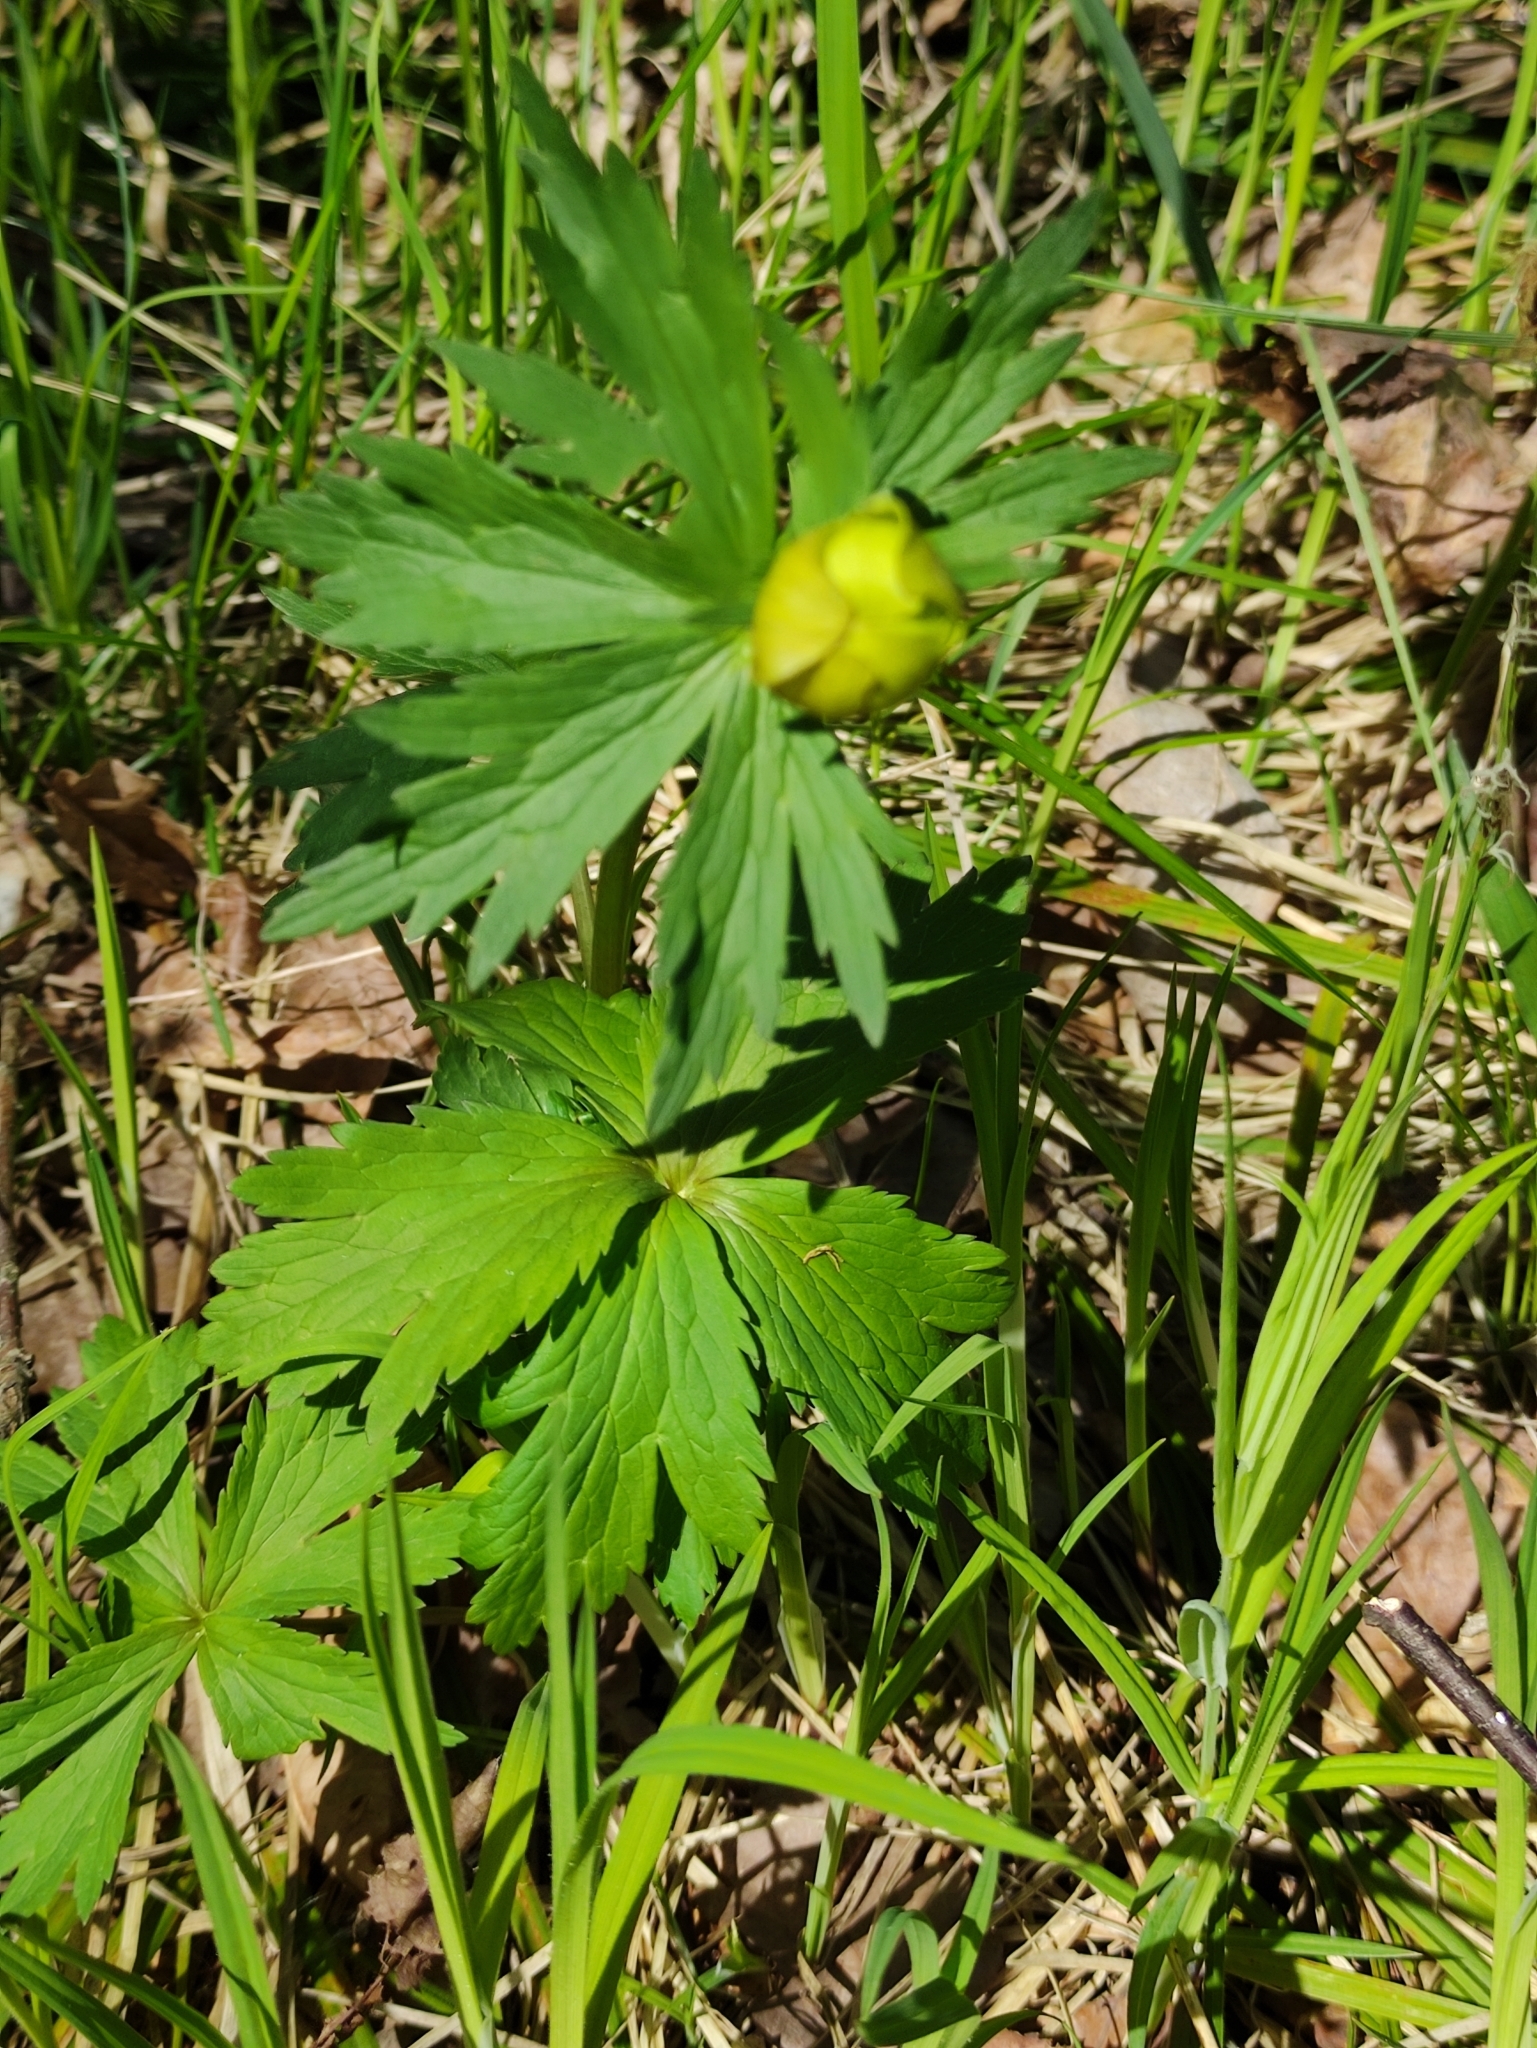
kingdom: Plantae
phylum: Tracheophyta
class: Magnoliopsida
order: Ranunculales
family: Ranunculaceae
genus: Trollius
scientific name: Trollius europaeus
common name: European globeflower
